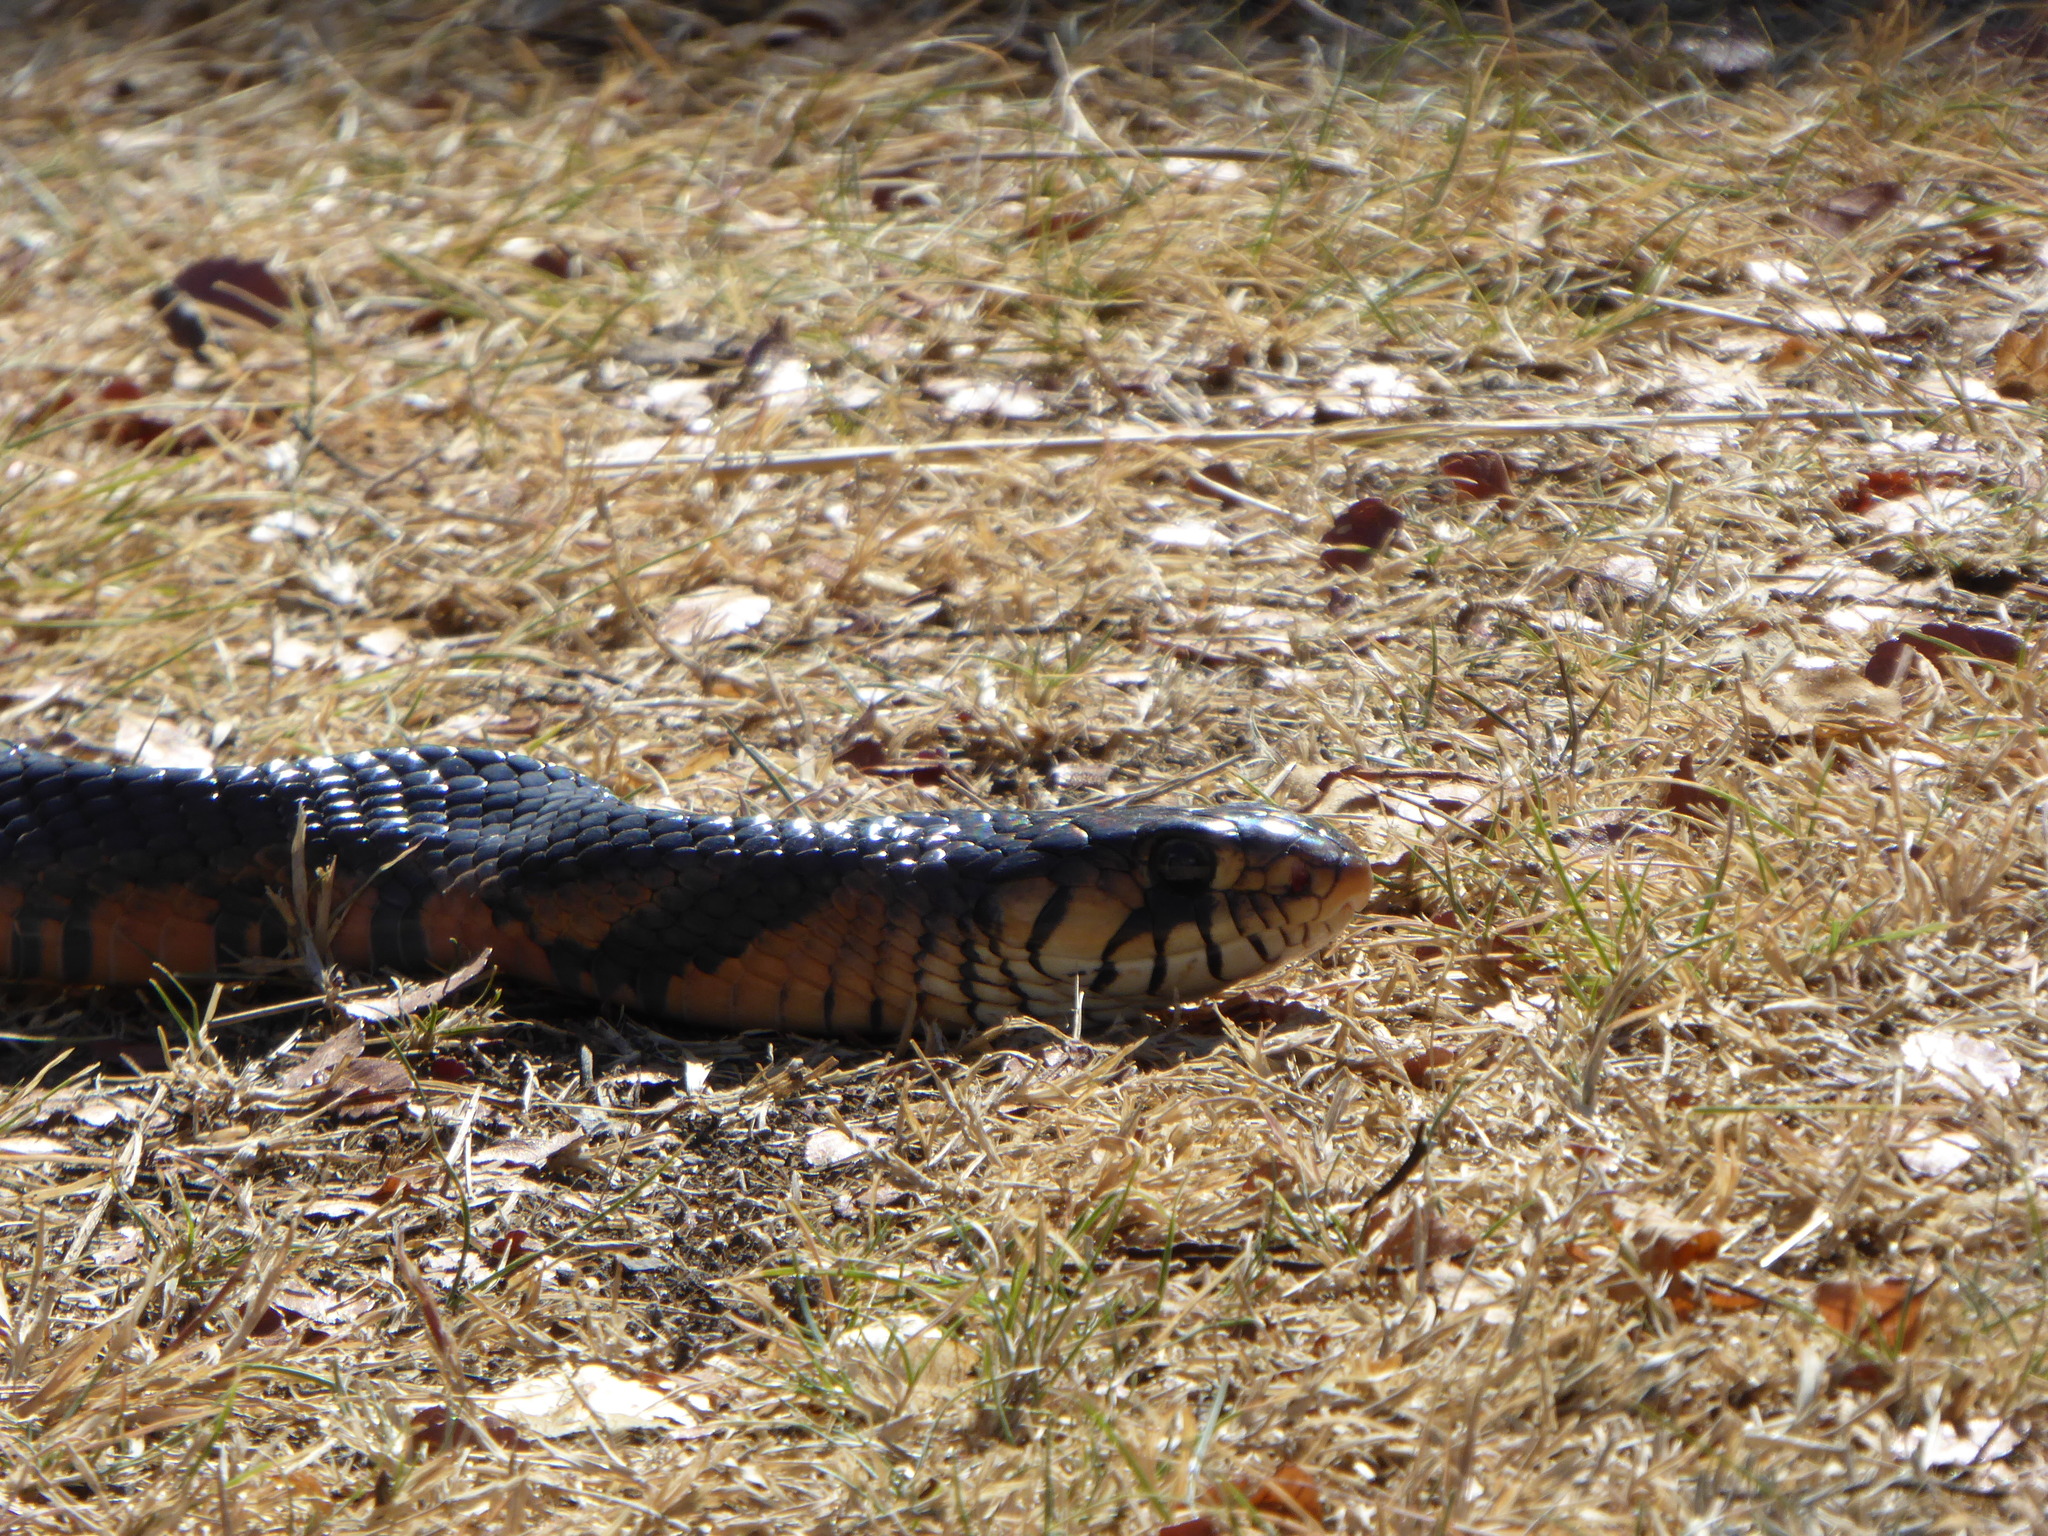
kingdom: Animalia
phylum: Chordata
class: Squamata
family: Colubridae
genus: Drymarchon
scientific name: Drymarchon melanurus
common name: Central american indigo snake
